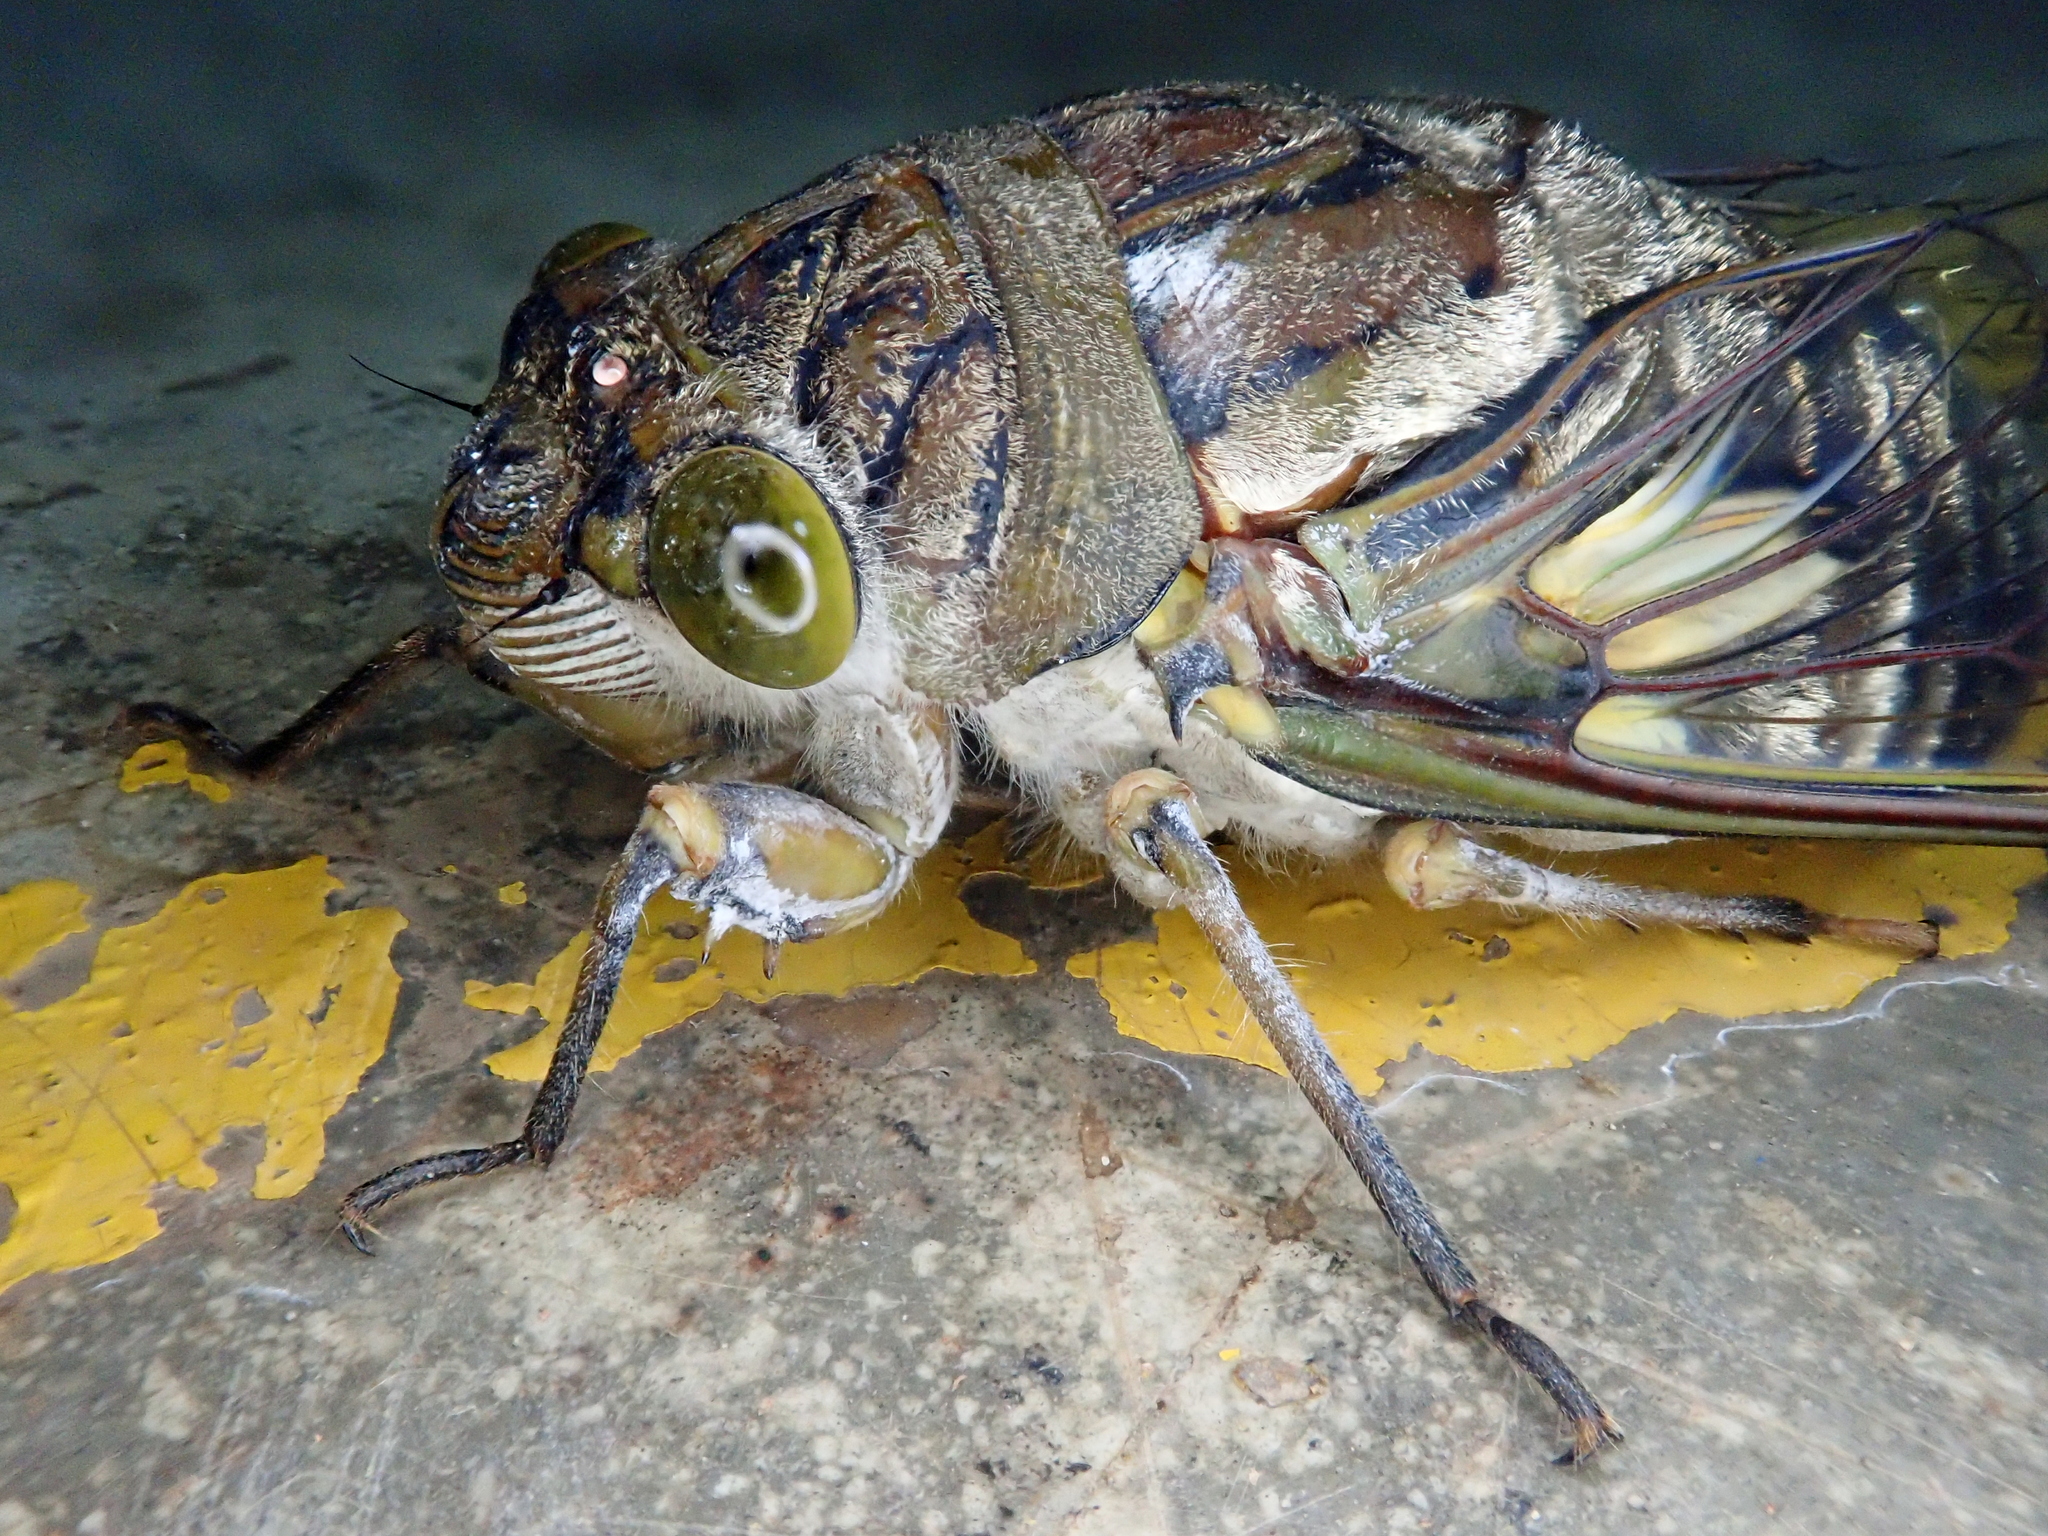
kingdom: Animalia
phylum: Arthropoda
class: Insecta
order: Hemiptera
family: Cicadidae
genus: Quesada
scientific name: Quesada gigas
